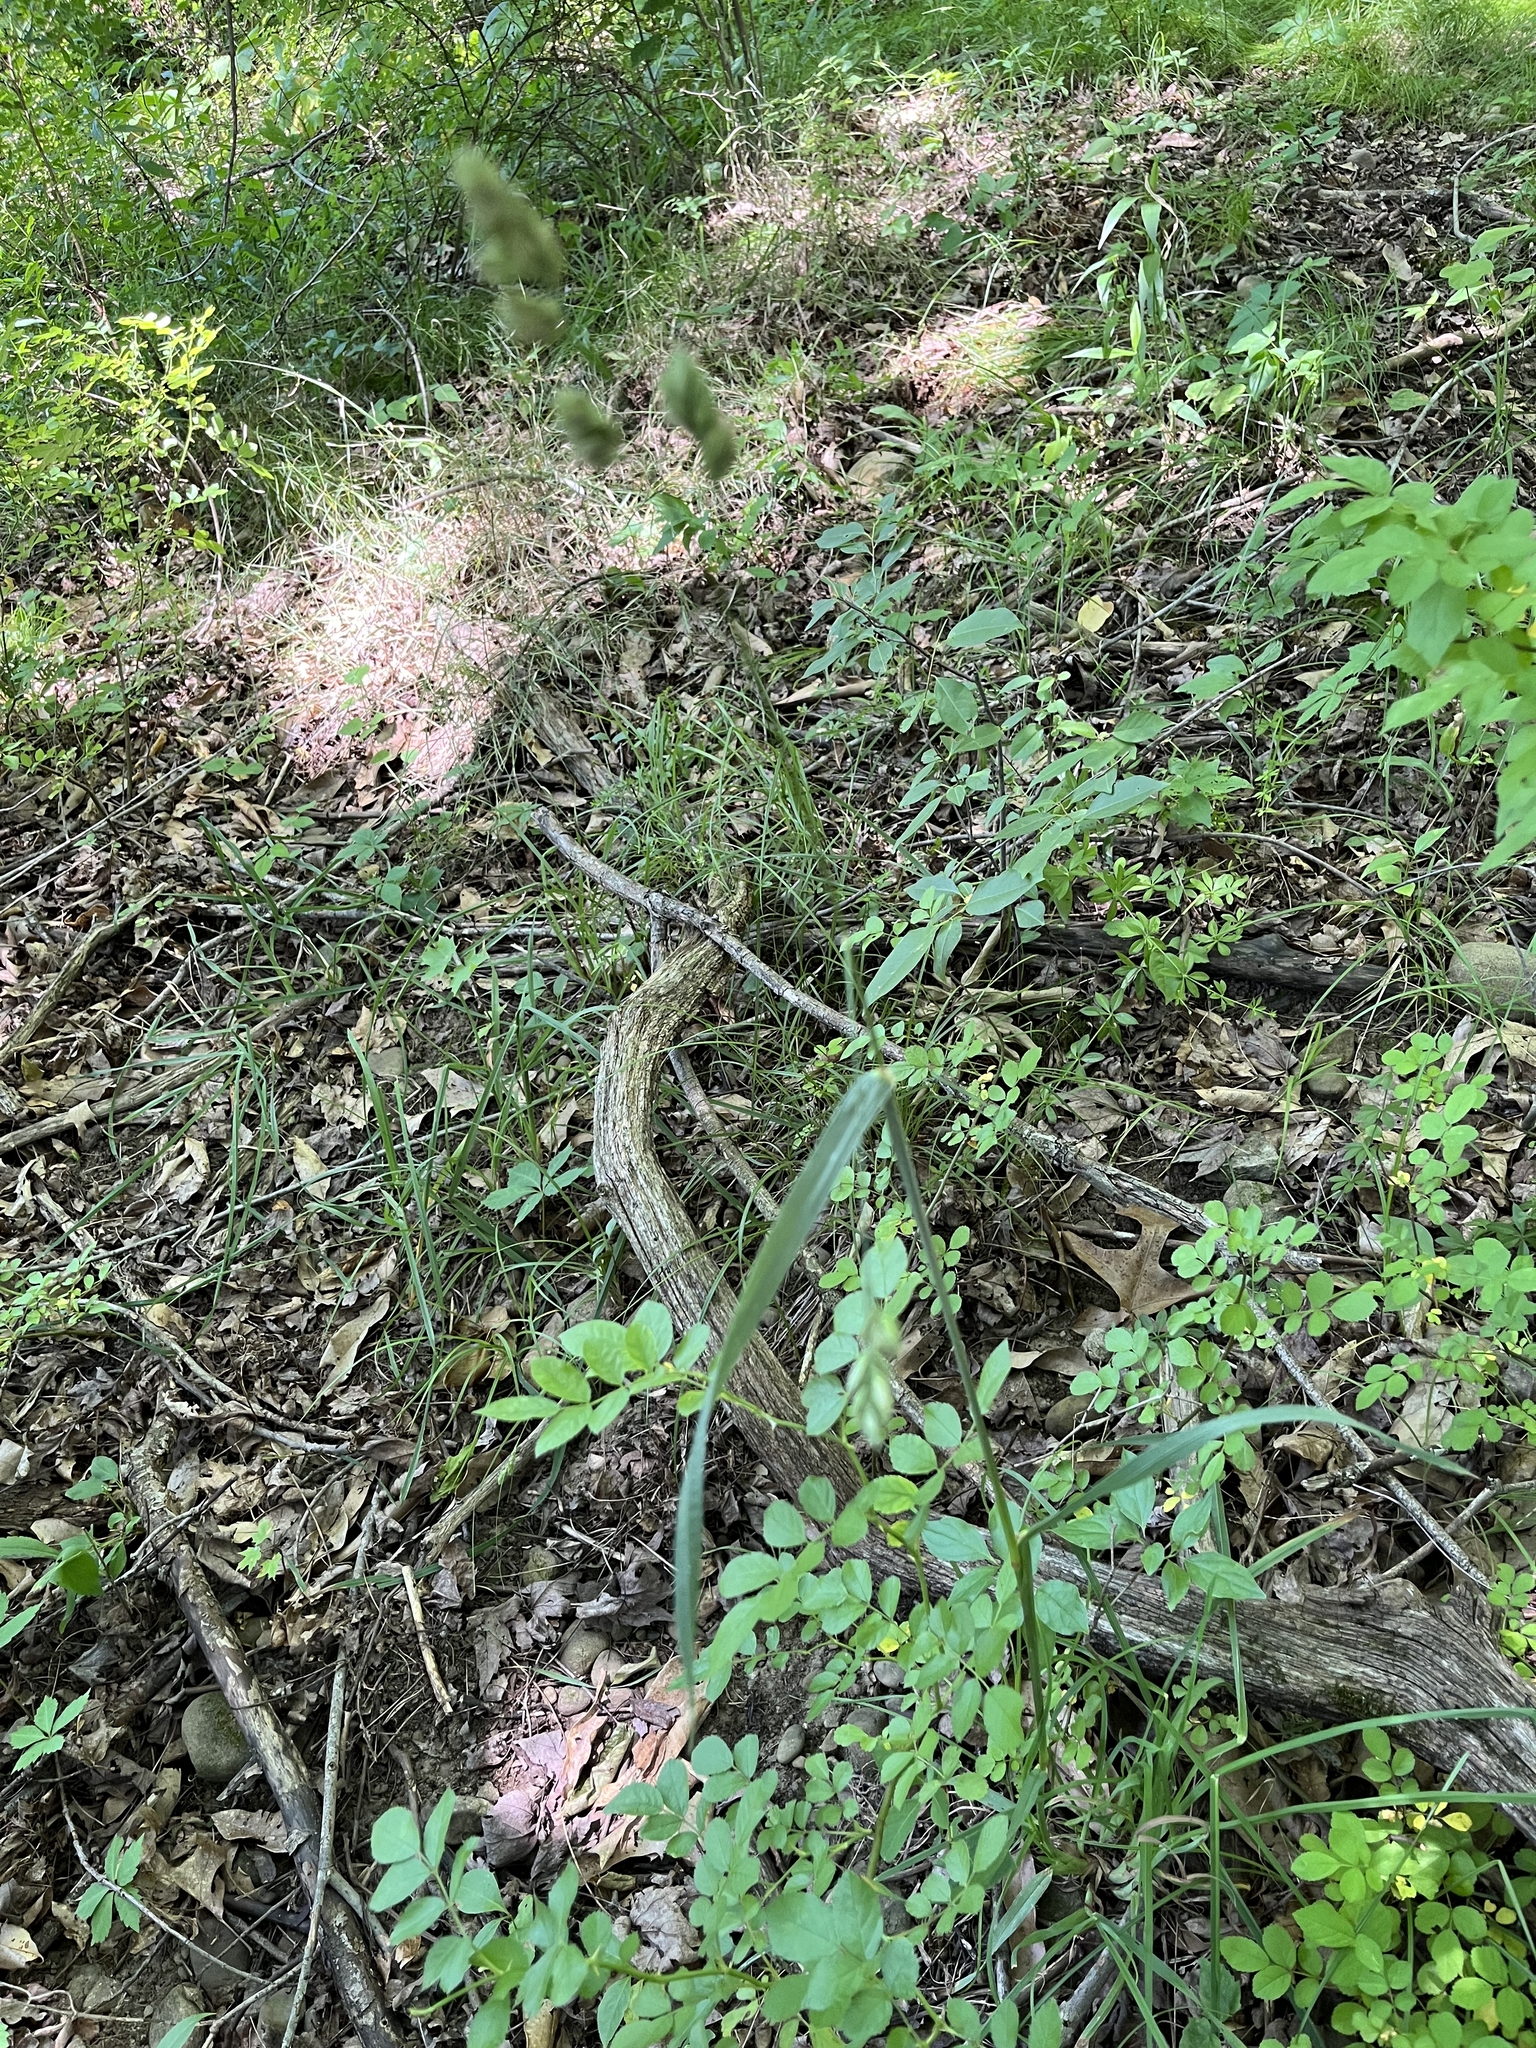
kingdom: Plantae
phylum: Tracheophyta
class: Liliopsida
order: Poales
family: Poaceae
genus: Dactylis
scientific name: Dactylis glomerata
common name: Orchardgrass
